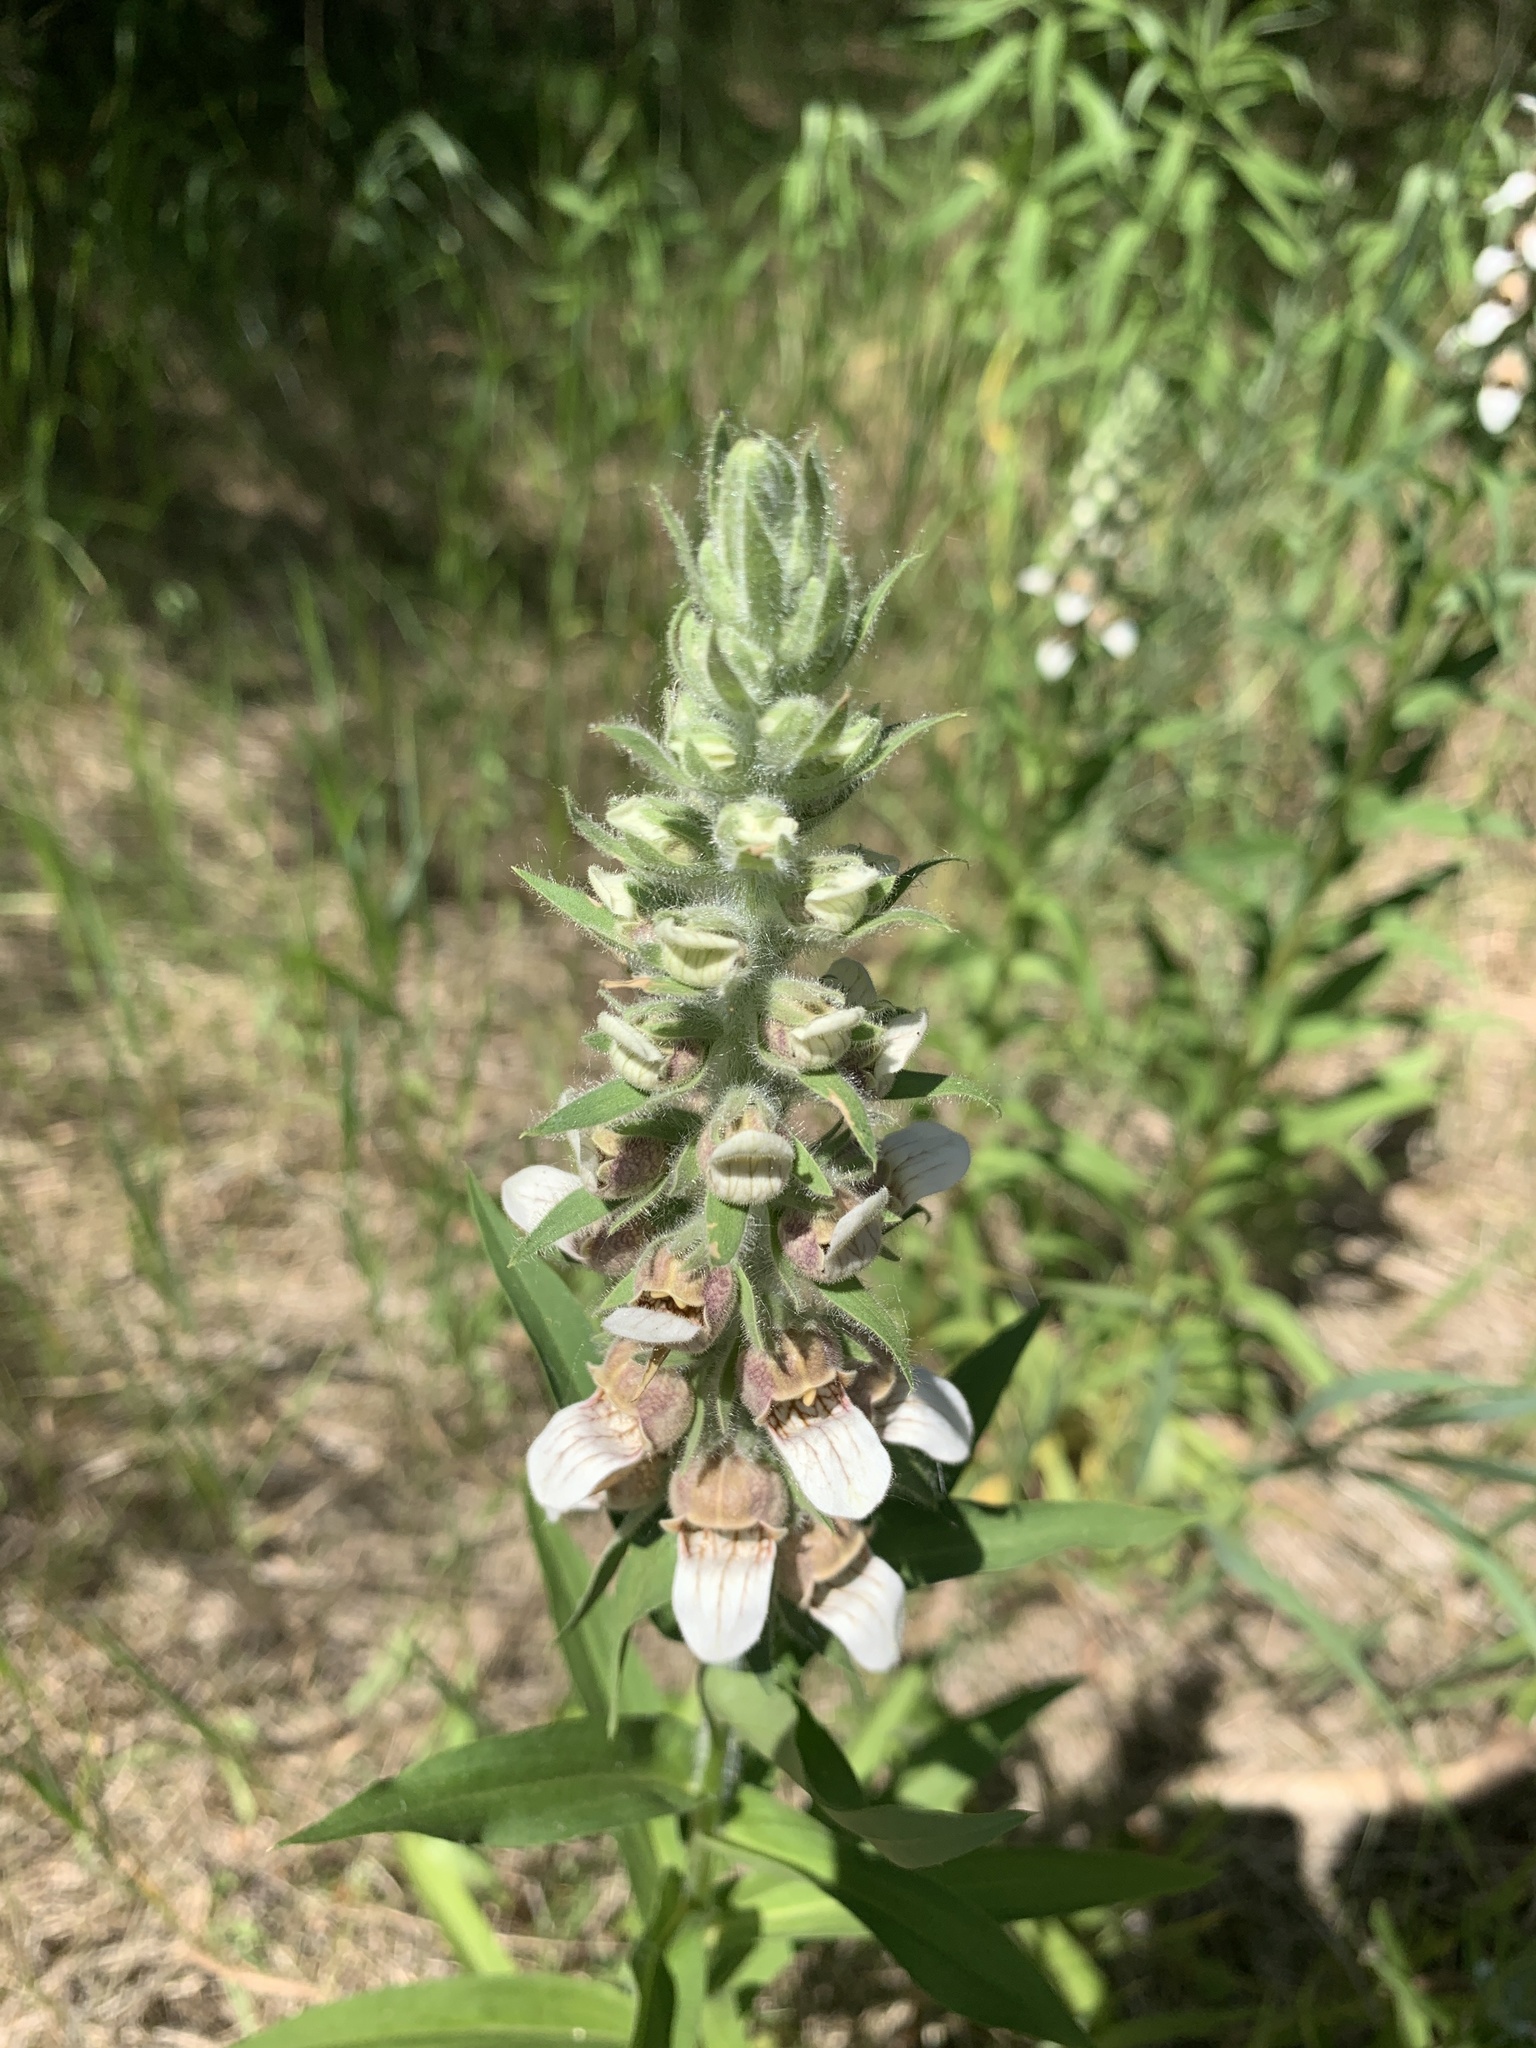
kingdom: Plantae
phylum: Tracheophyta
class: Magnoliopsida
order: Lamiales
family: Plantaginaceae
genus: Digitalis
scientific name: Digitalis lanata
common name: Grecian foxglove
